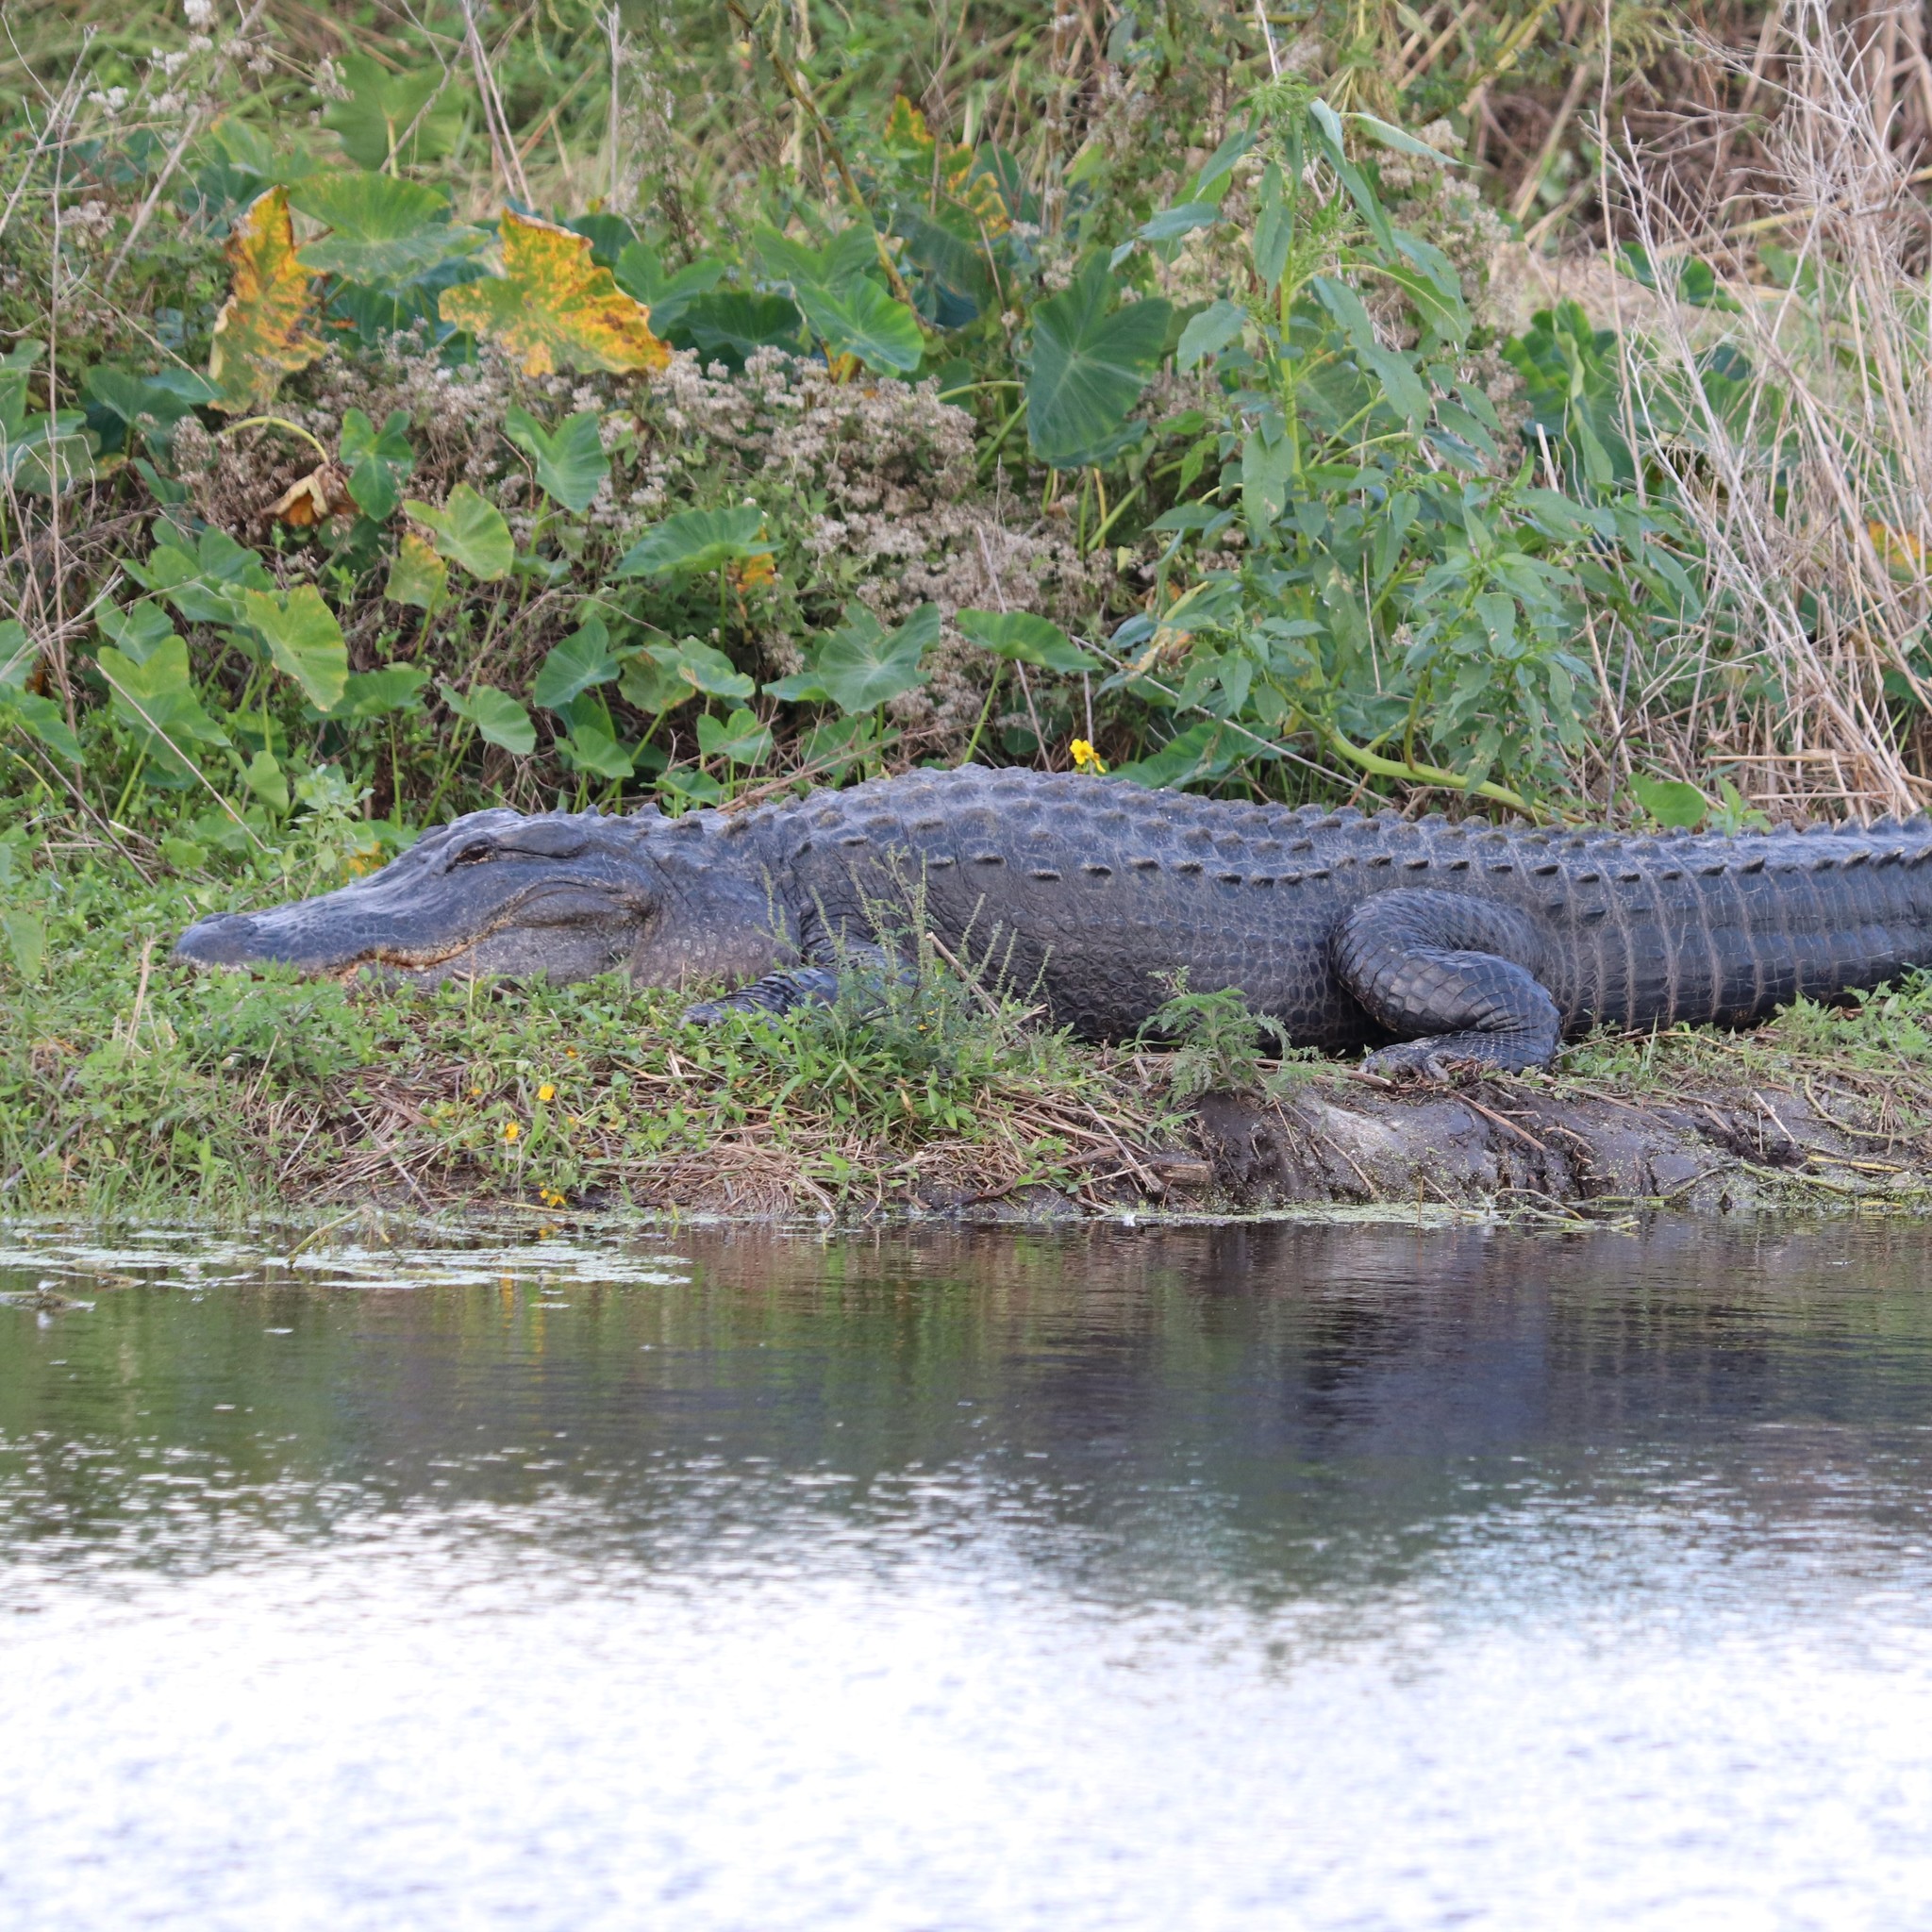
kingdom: Animalia
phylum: Chordata
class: Crocodylia
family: Alligatoridae
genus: Alligator
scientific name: Alligator mississippiensis
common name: American alligator
